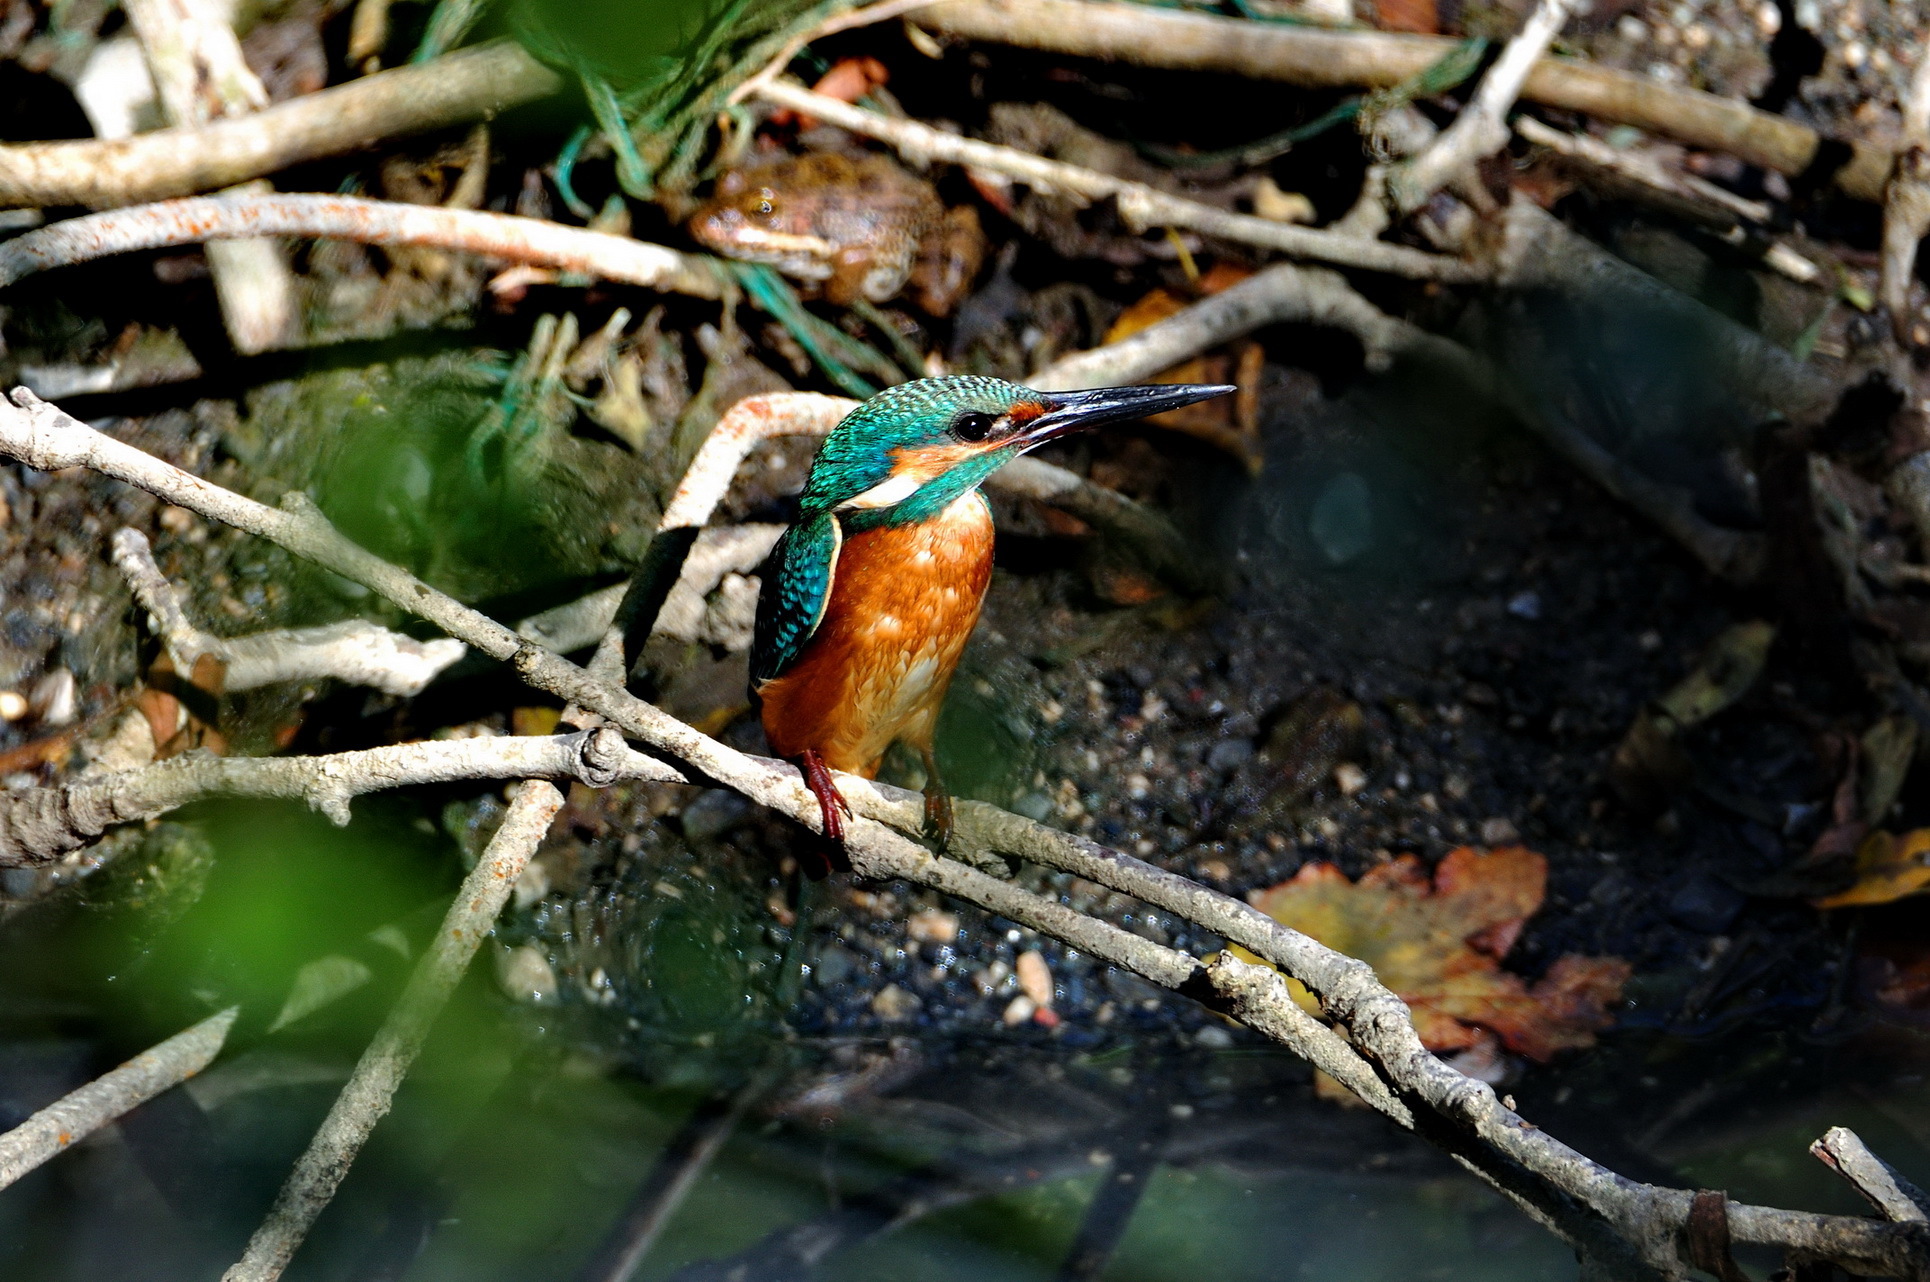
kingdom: Animalia
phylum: Chordata
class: Aves
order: Coraciiformes
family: Alcedinidae
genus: Alcedo
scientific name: Alcedo atthis
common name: Common kingfisher
